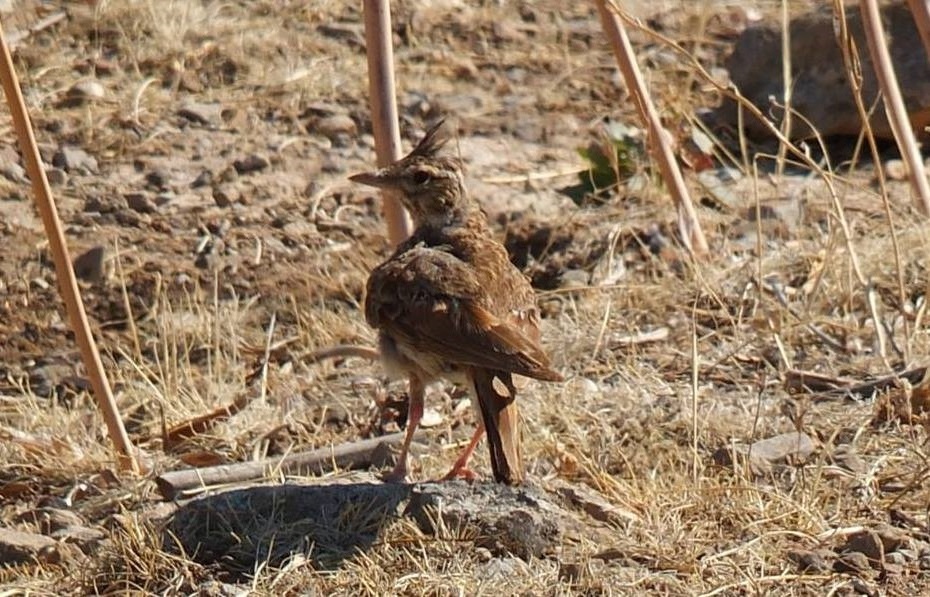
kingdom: Animalia
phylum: Chordata
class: Aves
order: Passeriformes
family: Alaudidae
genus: Galerida
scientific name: Galerida cristata
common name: Crested lark
